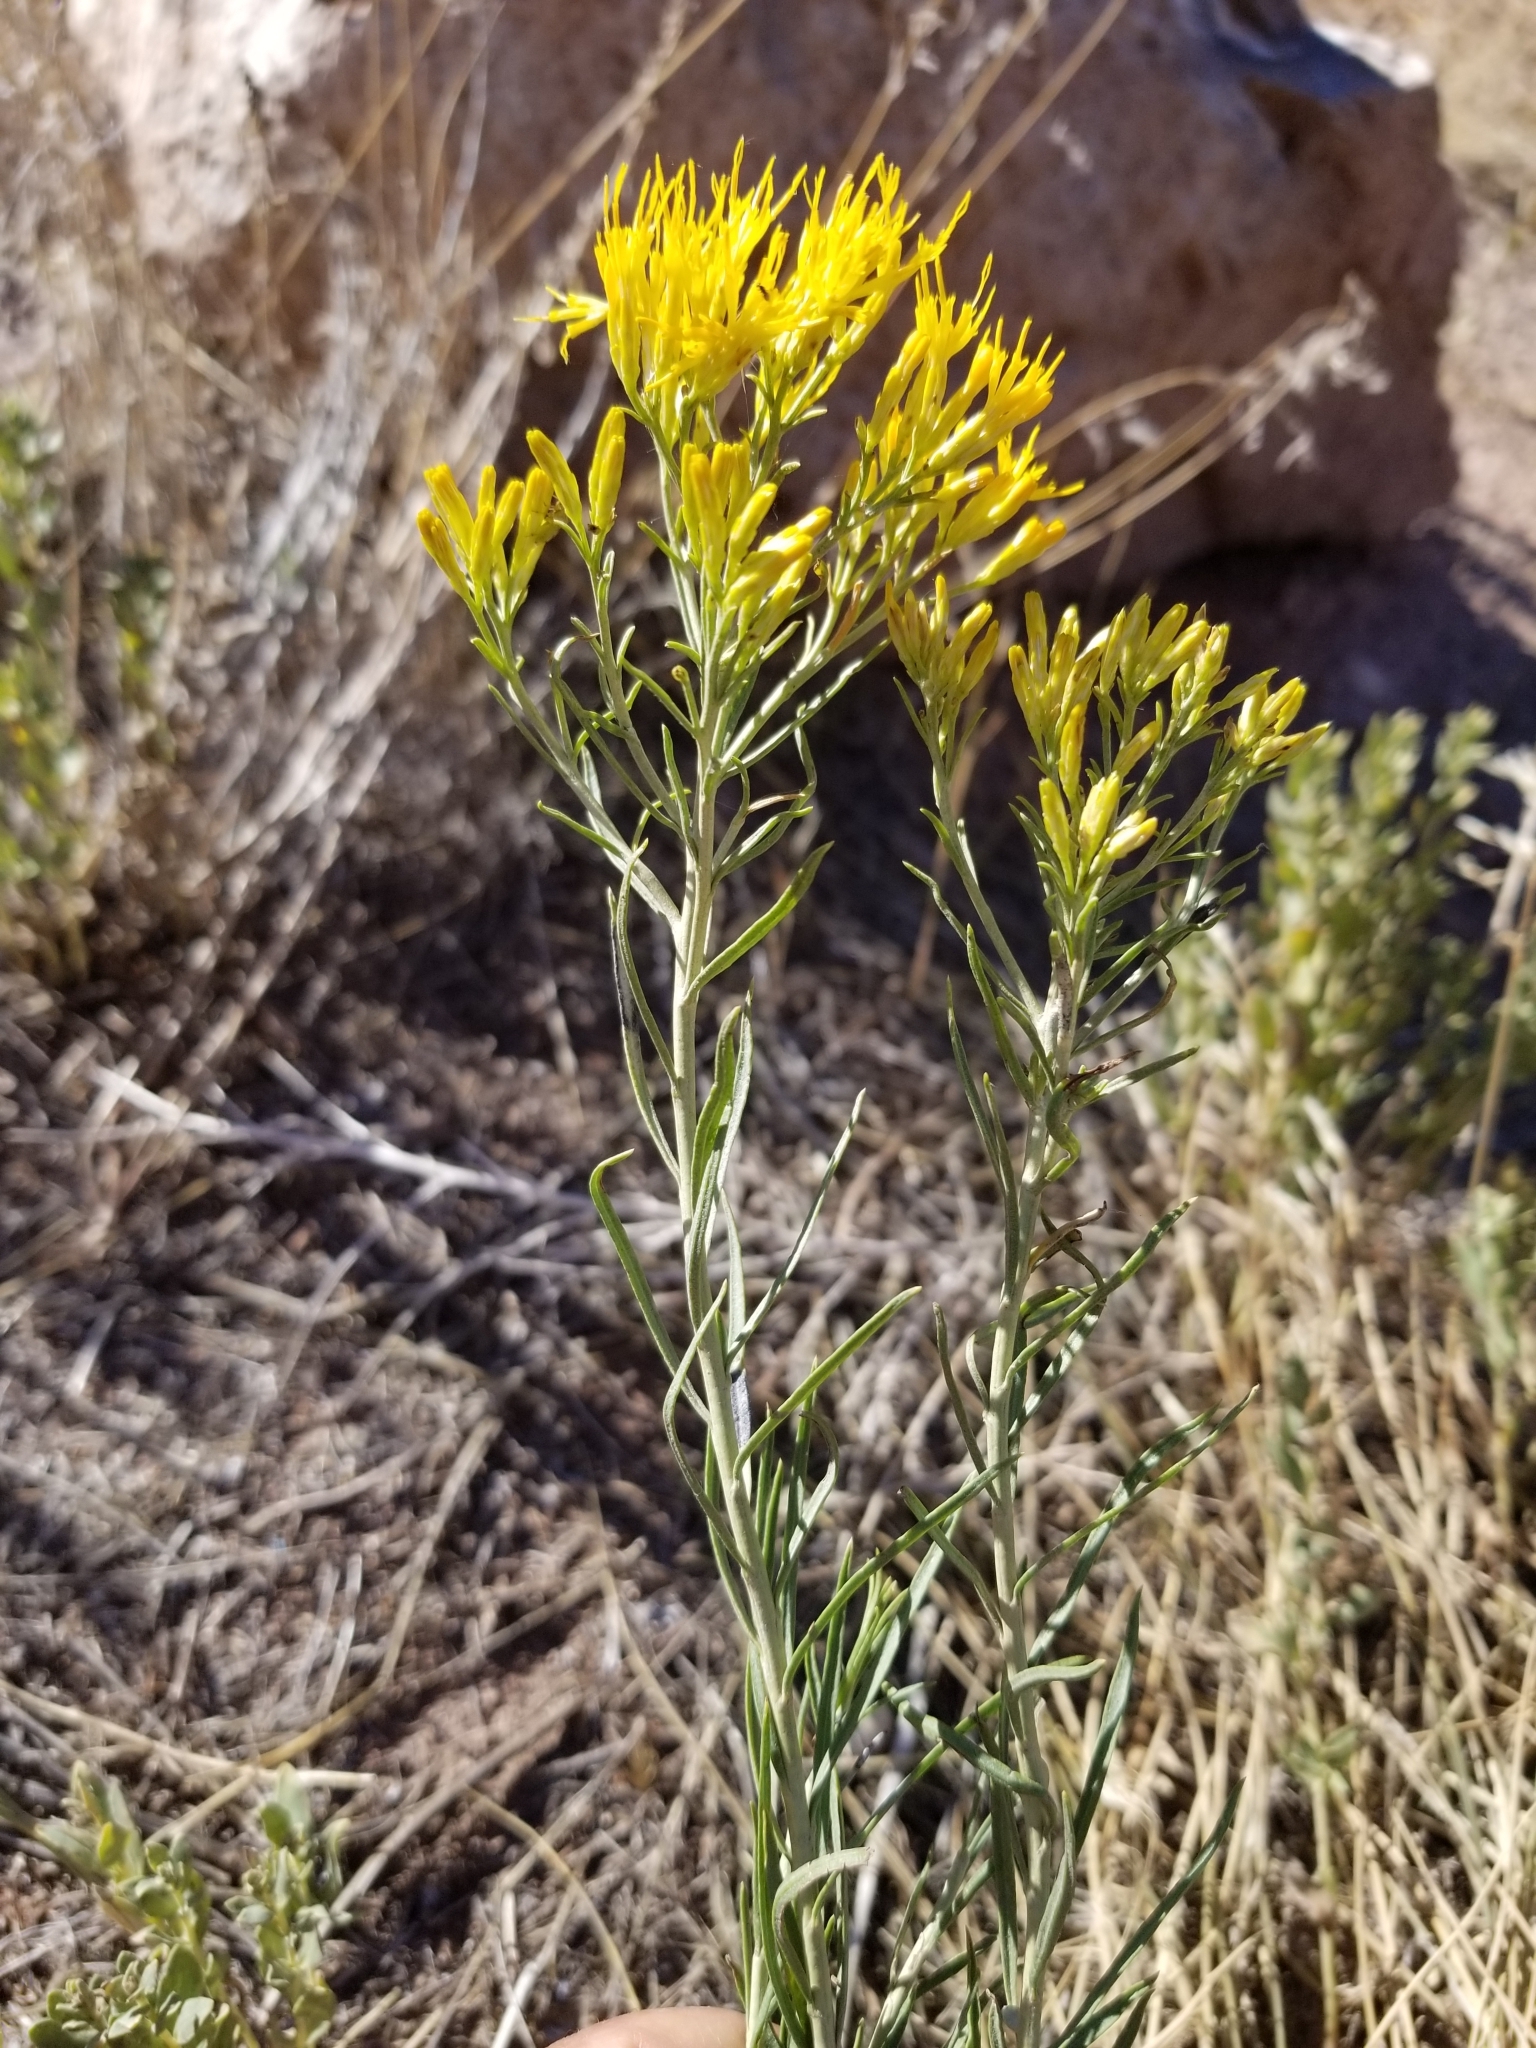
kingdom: Plantae
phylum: Tracheophyta
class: Magnoliopsida
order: Asterales
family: Asteraceae
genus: Ericameria
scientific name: Ericameria nauseosa
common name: Rubber rabbitbrush
